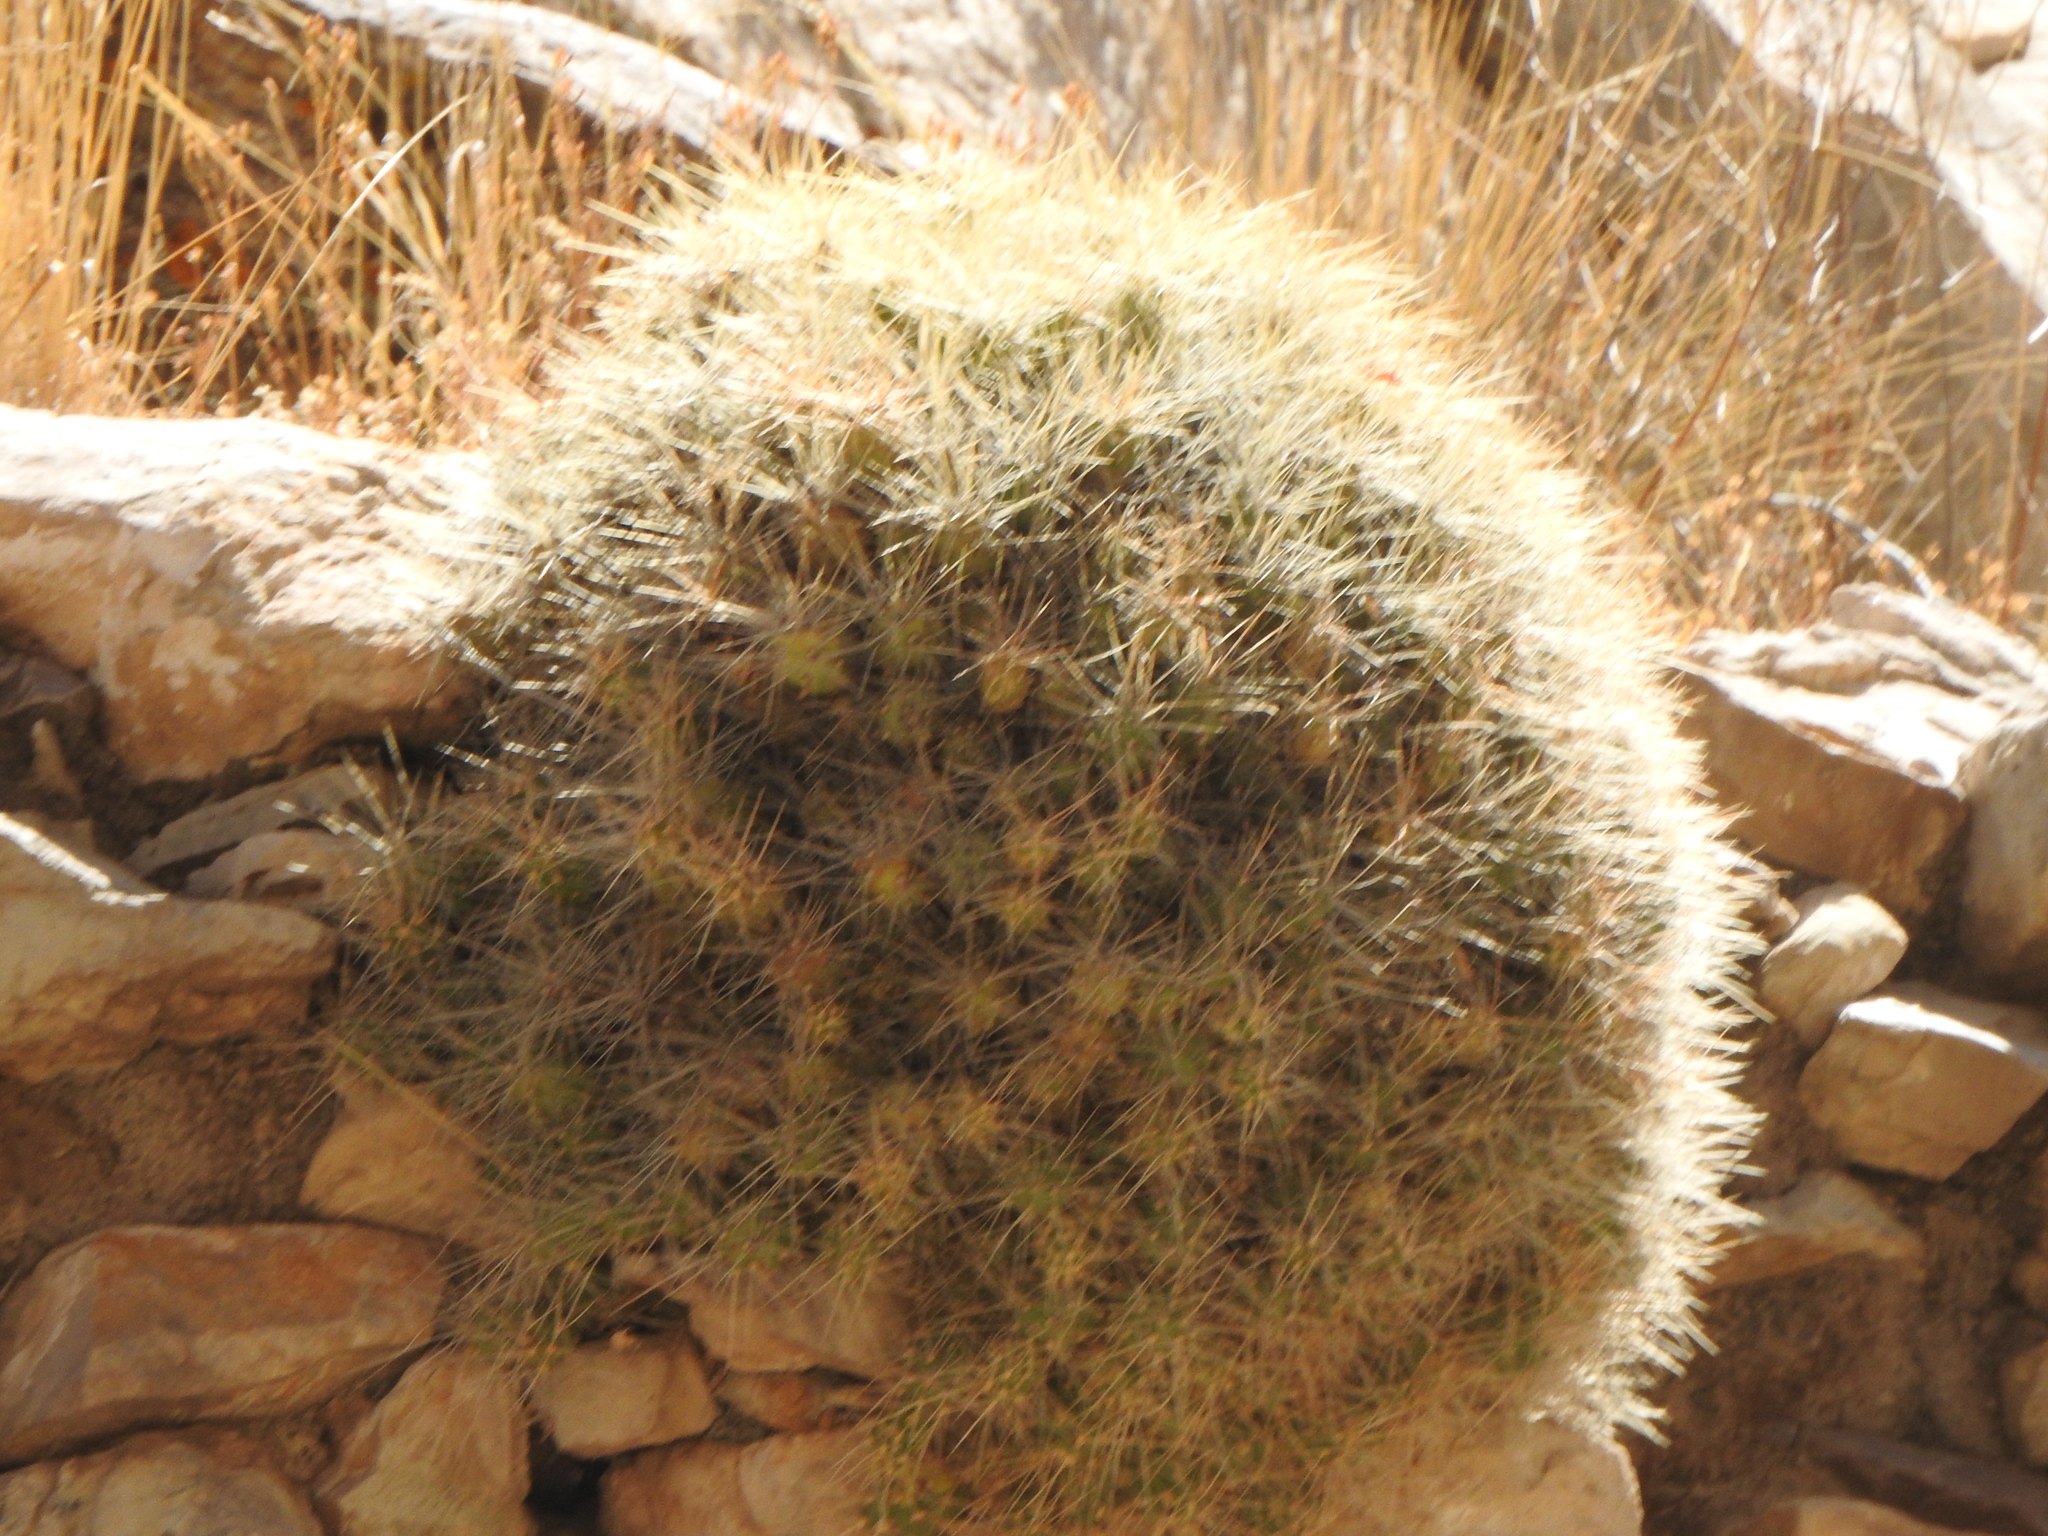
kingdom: Plantae
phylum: Tracheophyta
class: Magnoliopsida
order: Caryophyllales
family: Cactaceae
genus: Cumulopuntia
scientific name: Cumulopuntia boliviana
